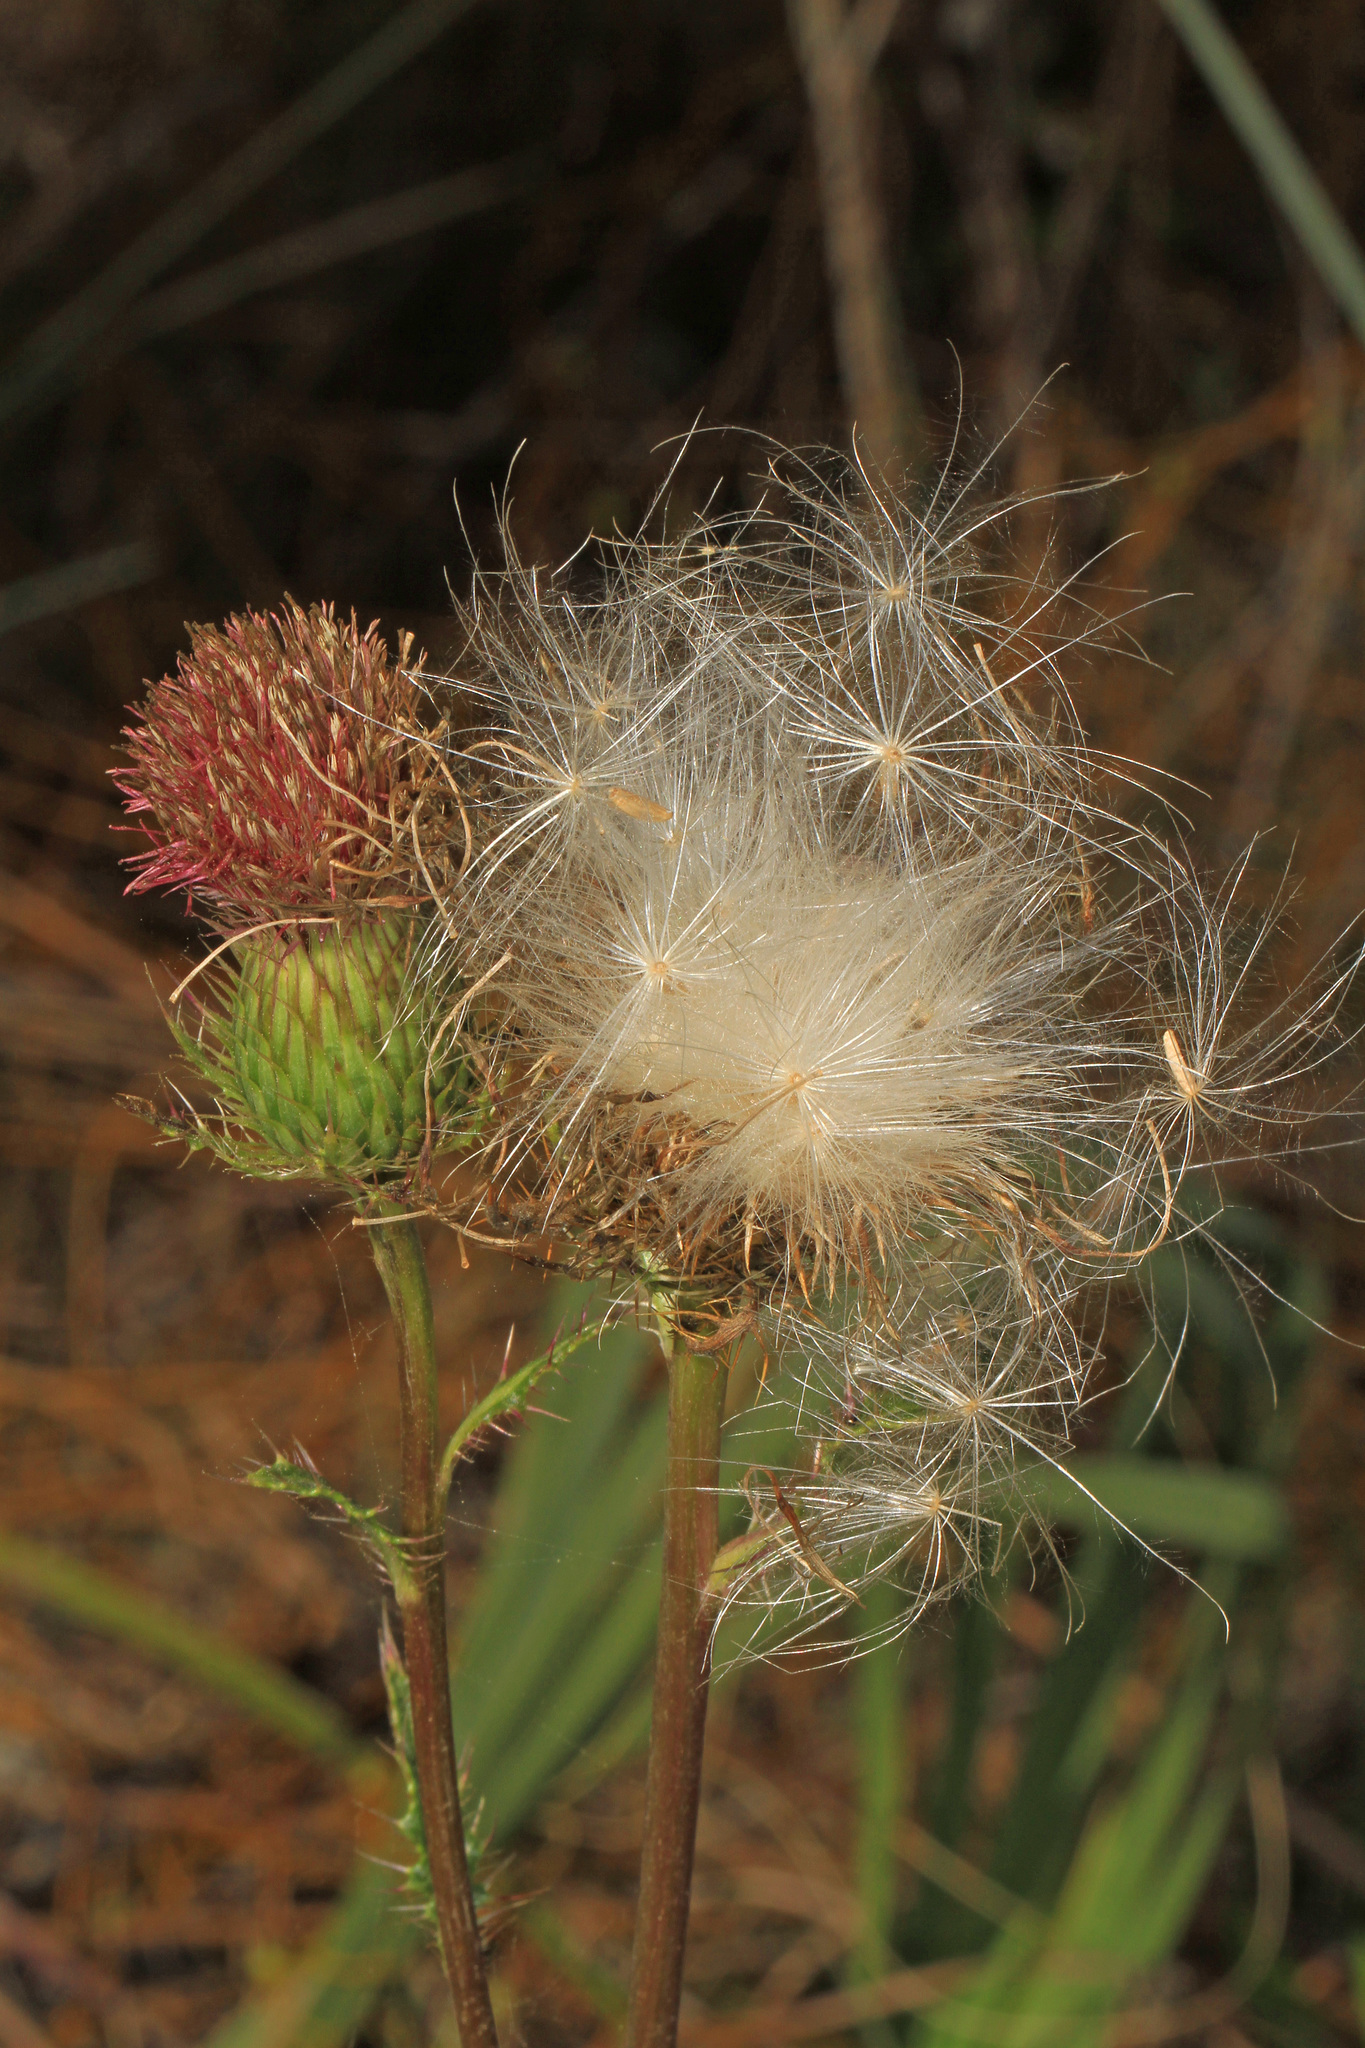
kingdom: Plantae
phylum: Tracheophyta
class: Magnoliopsida
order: Asterales
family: Asteraceae
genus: Cirsium
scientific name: Cirsium horridulum
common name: Bristly thistle
